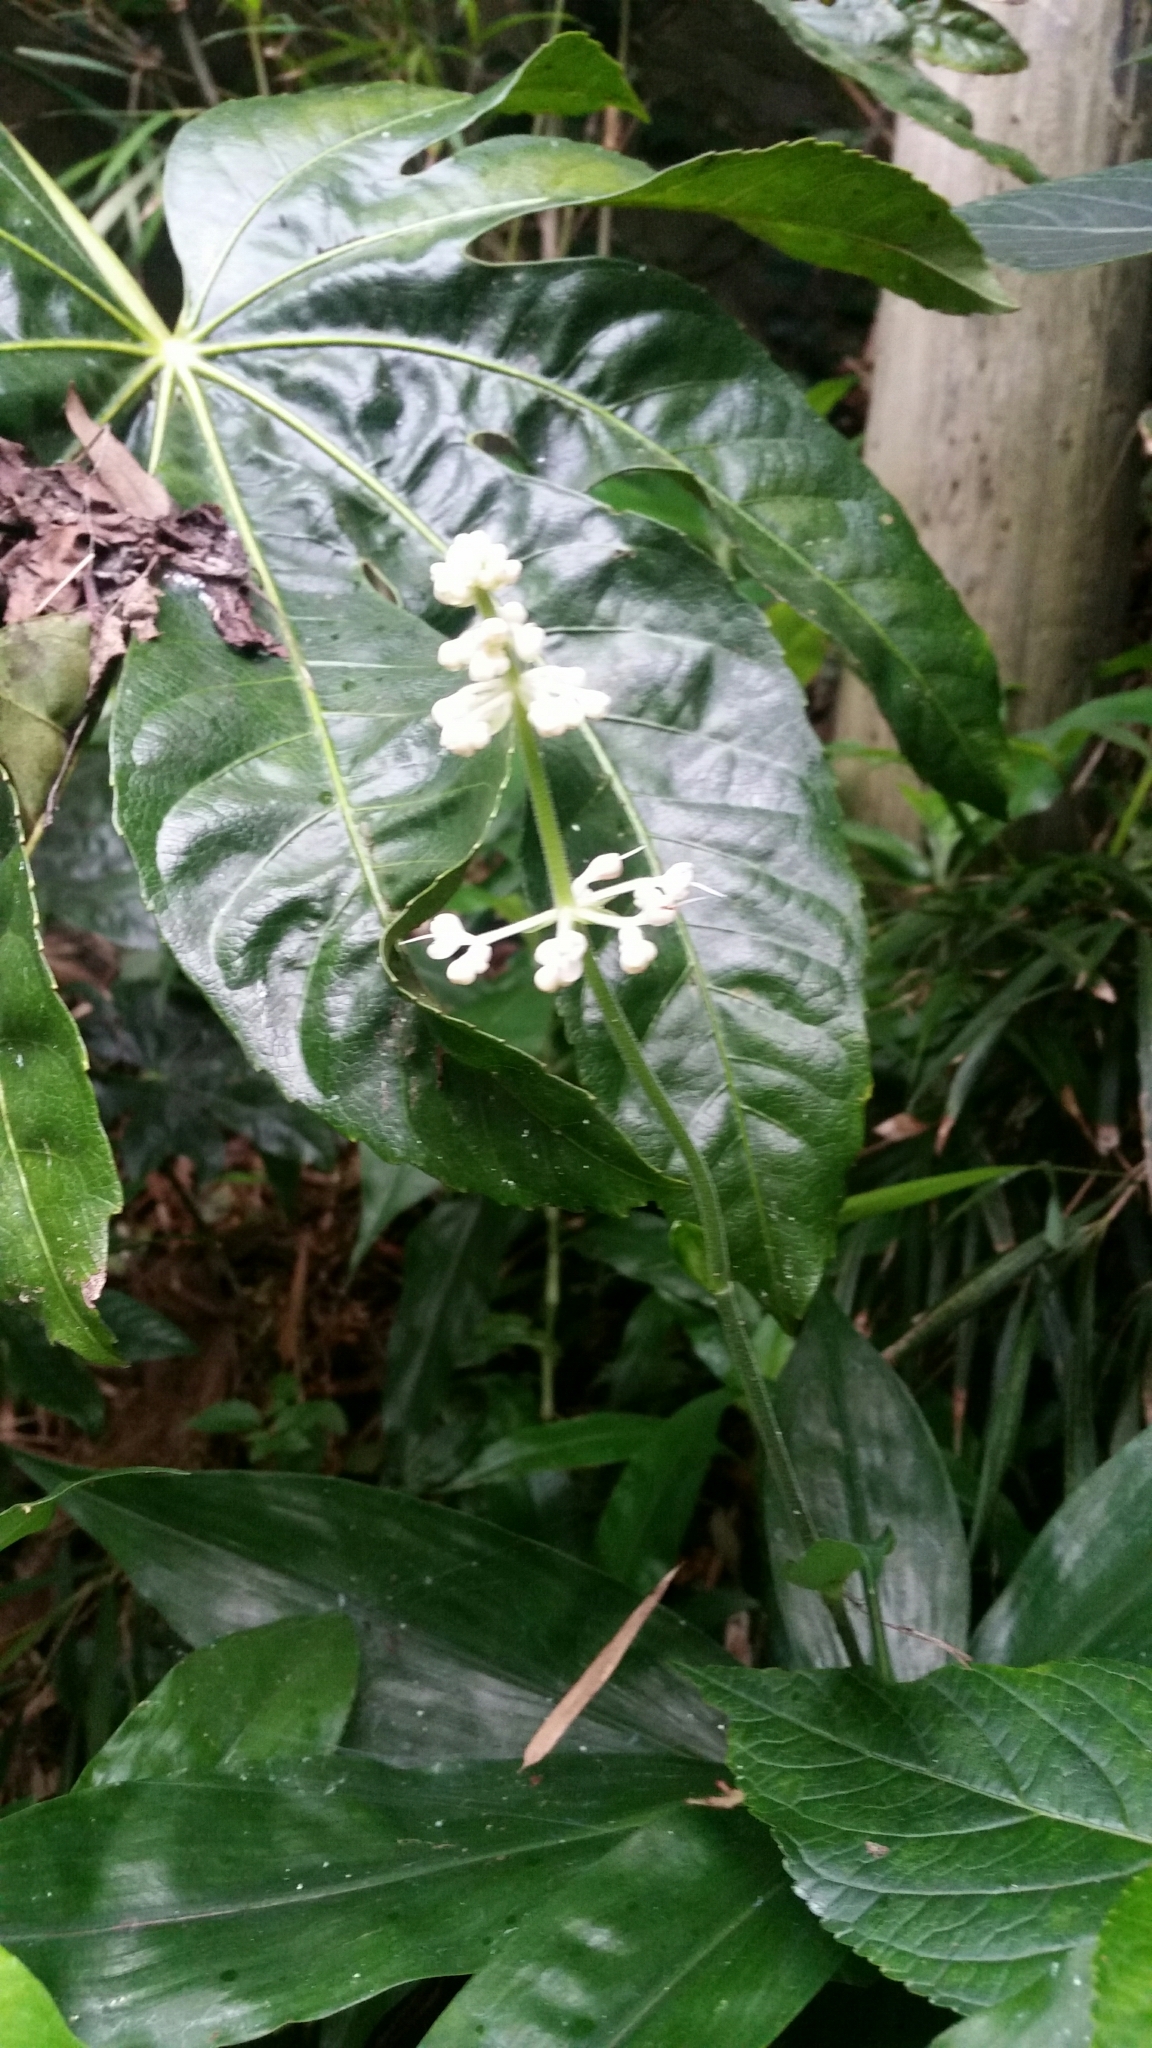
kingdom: Plantae
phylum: Tracheophyta
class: Liliopsida
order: Commelinales
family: Commelinaceae
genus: Pollia
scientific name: Pollia japonica
